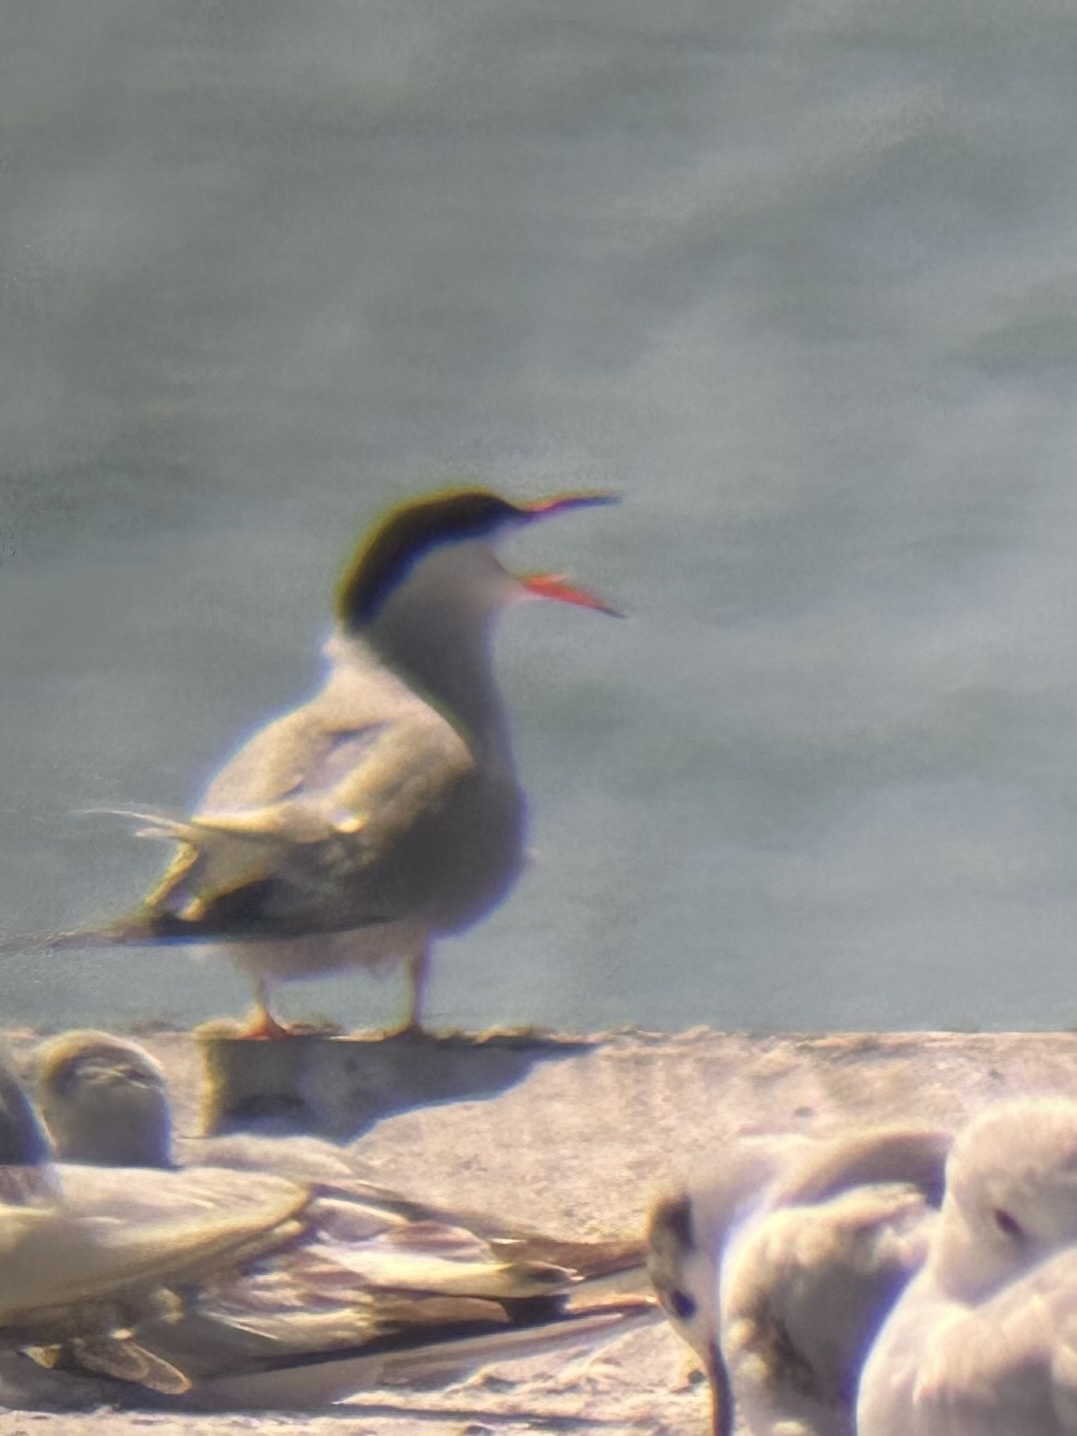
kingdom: Animalia
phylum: Chordata
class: Aves
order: Charadriiformes
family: Laridae
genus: Sterna
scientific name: Sterna hirundo
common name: Common tern
